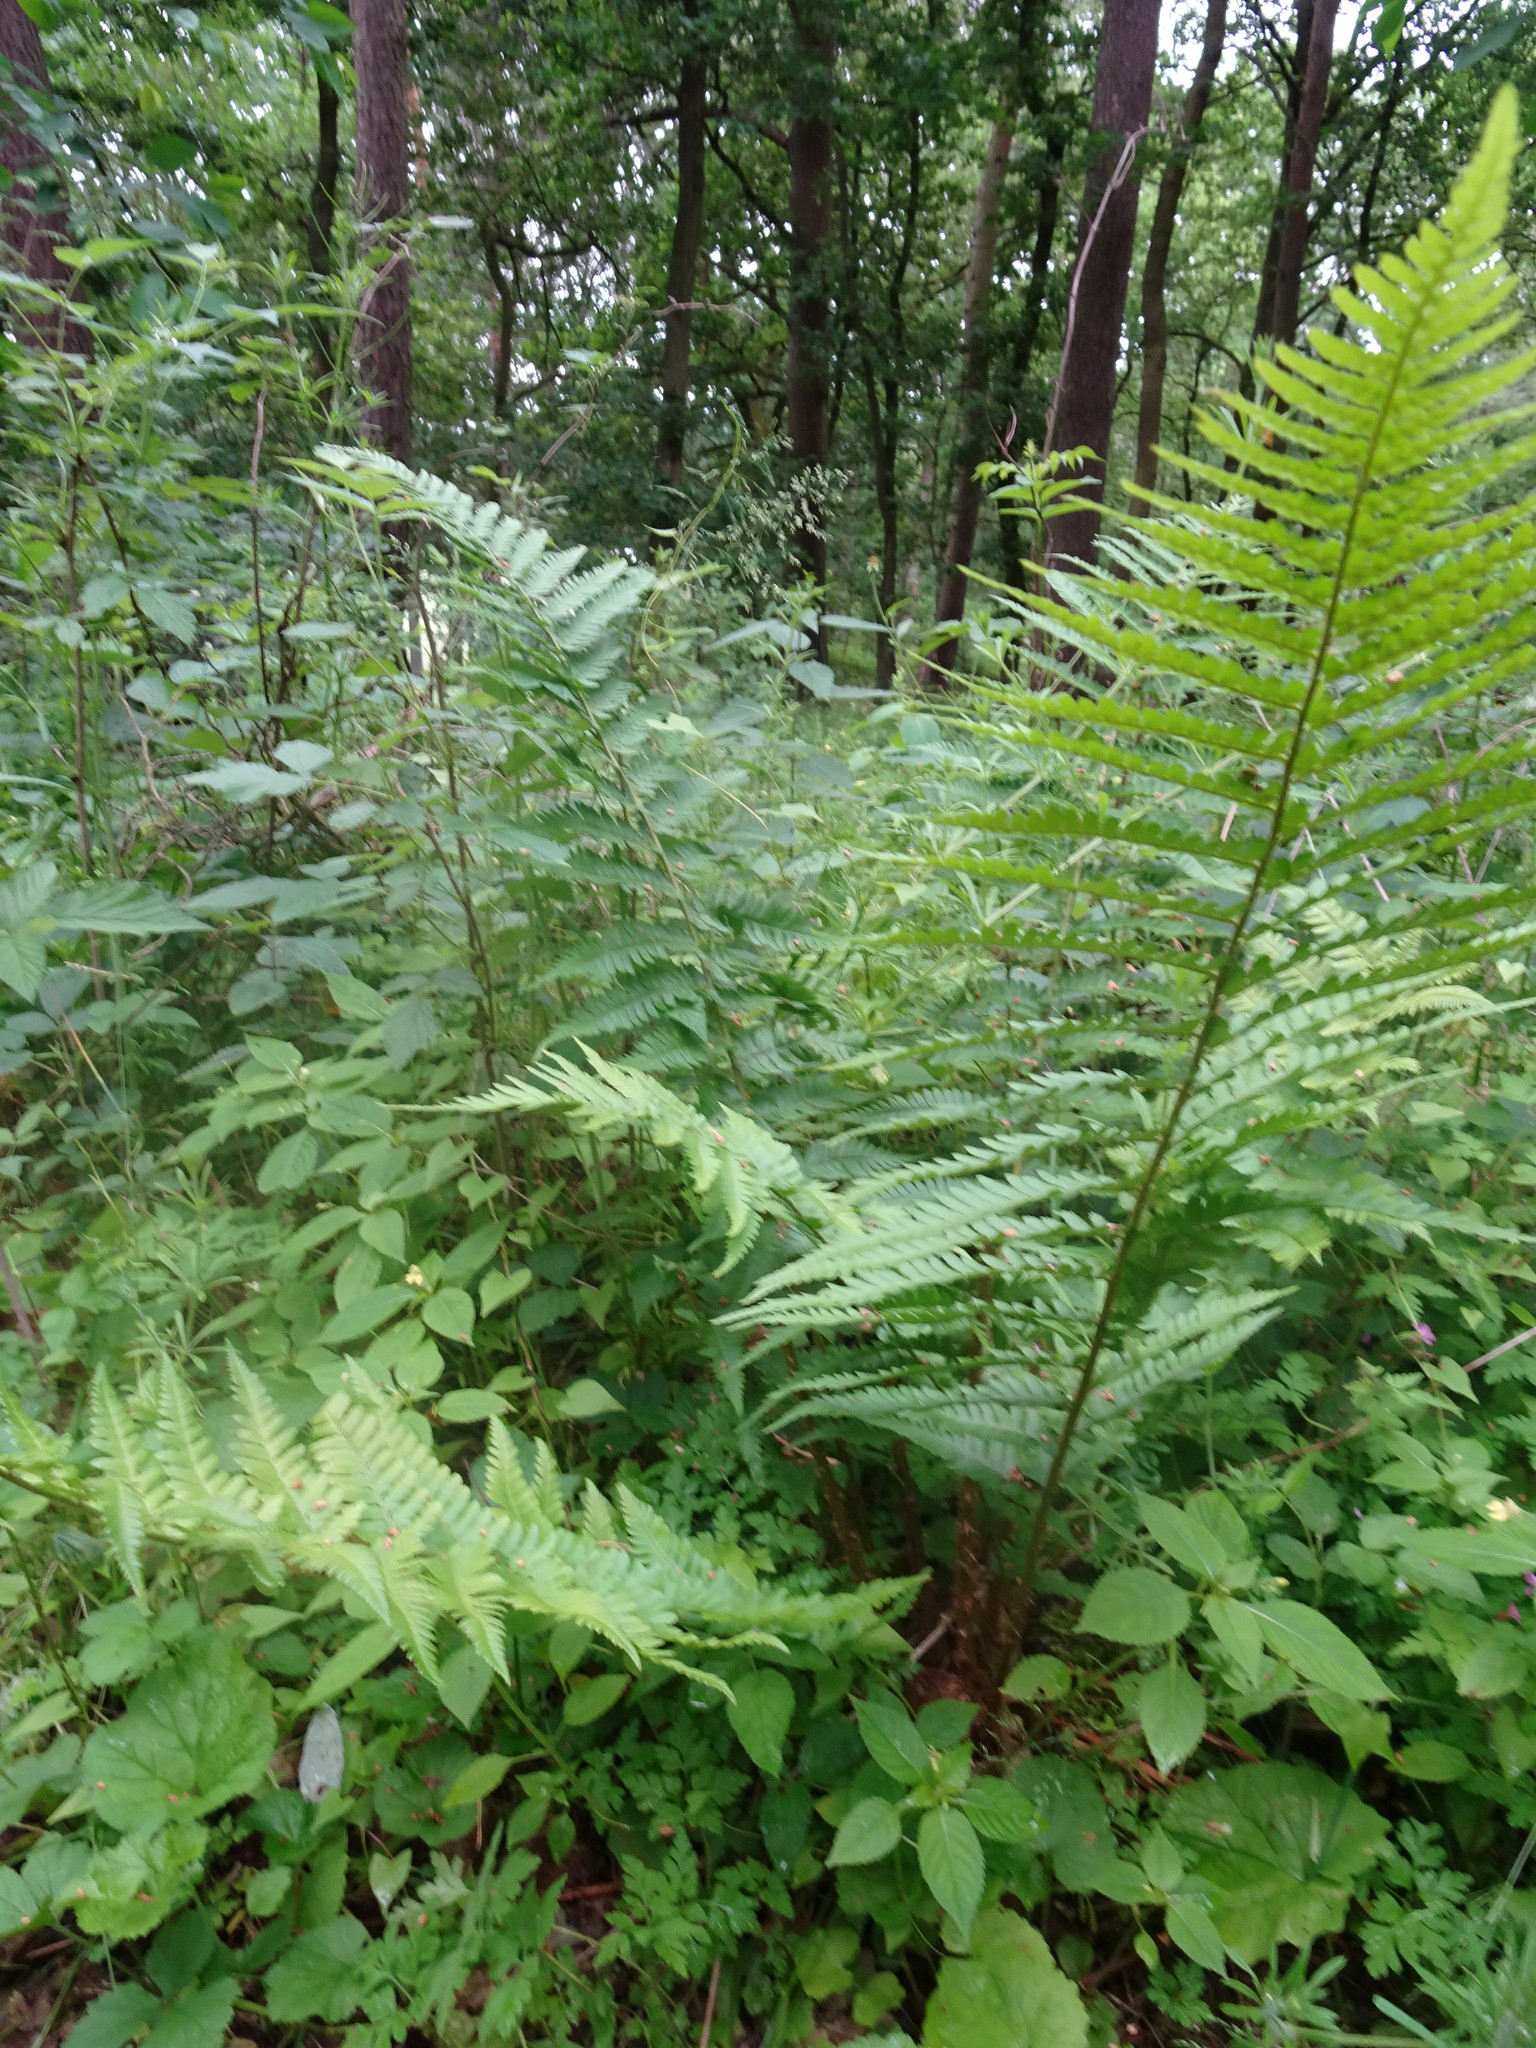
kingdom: Plantae
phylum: Tracheophyta
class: Polypodiopsida
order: Polypodiales
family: Dryopteridaceae
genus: Dryopteris
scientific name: Dryopteris filix-mas
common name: Male fern
